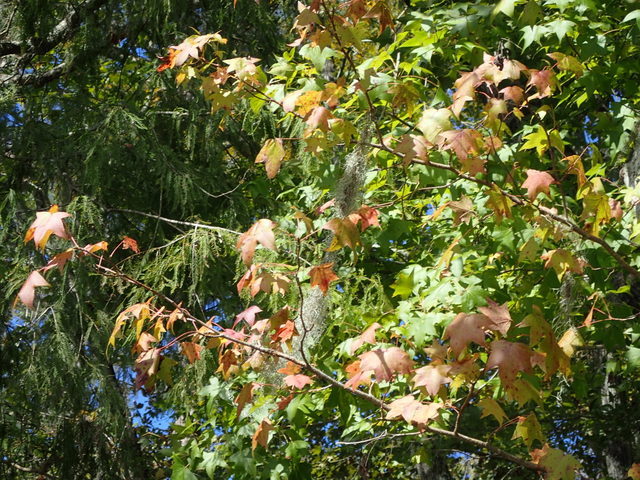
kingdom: Plantae
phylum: Tracheophyta
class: Magnoliopsida
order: Saxifragales
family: Altingiaceae
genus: Liquidambar
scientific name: Liquidambar styraciflua
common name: Sweet gum
